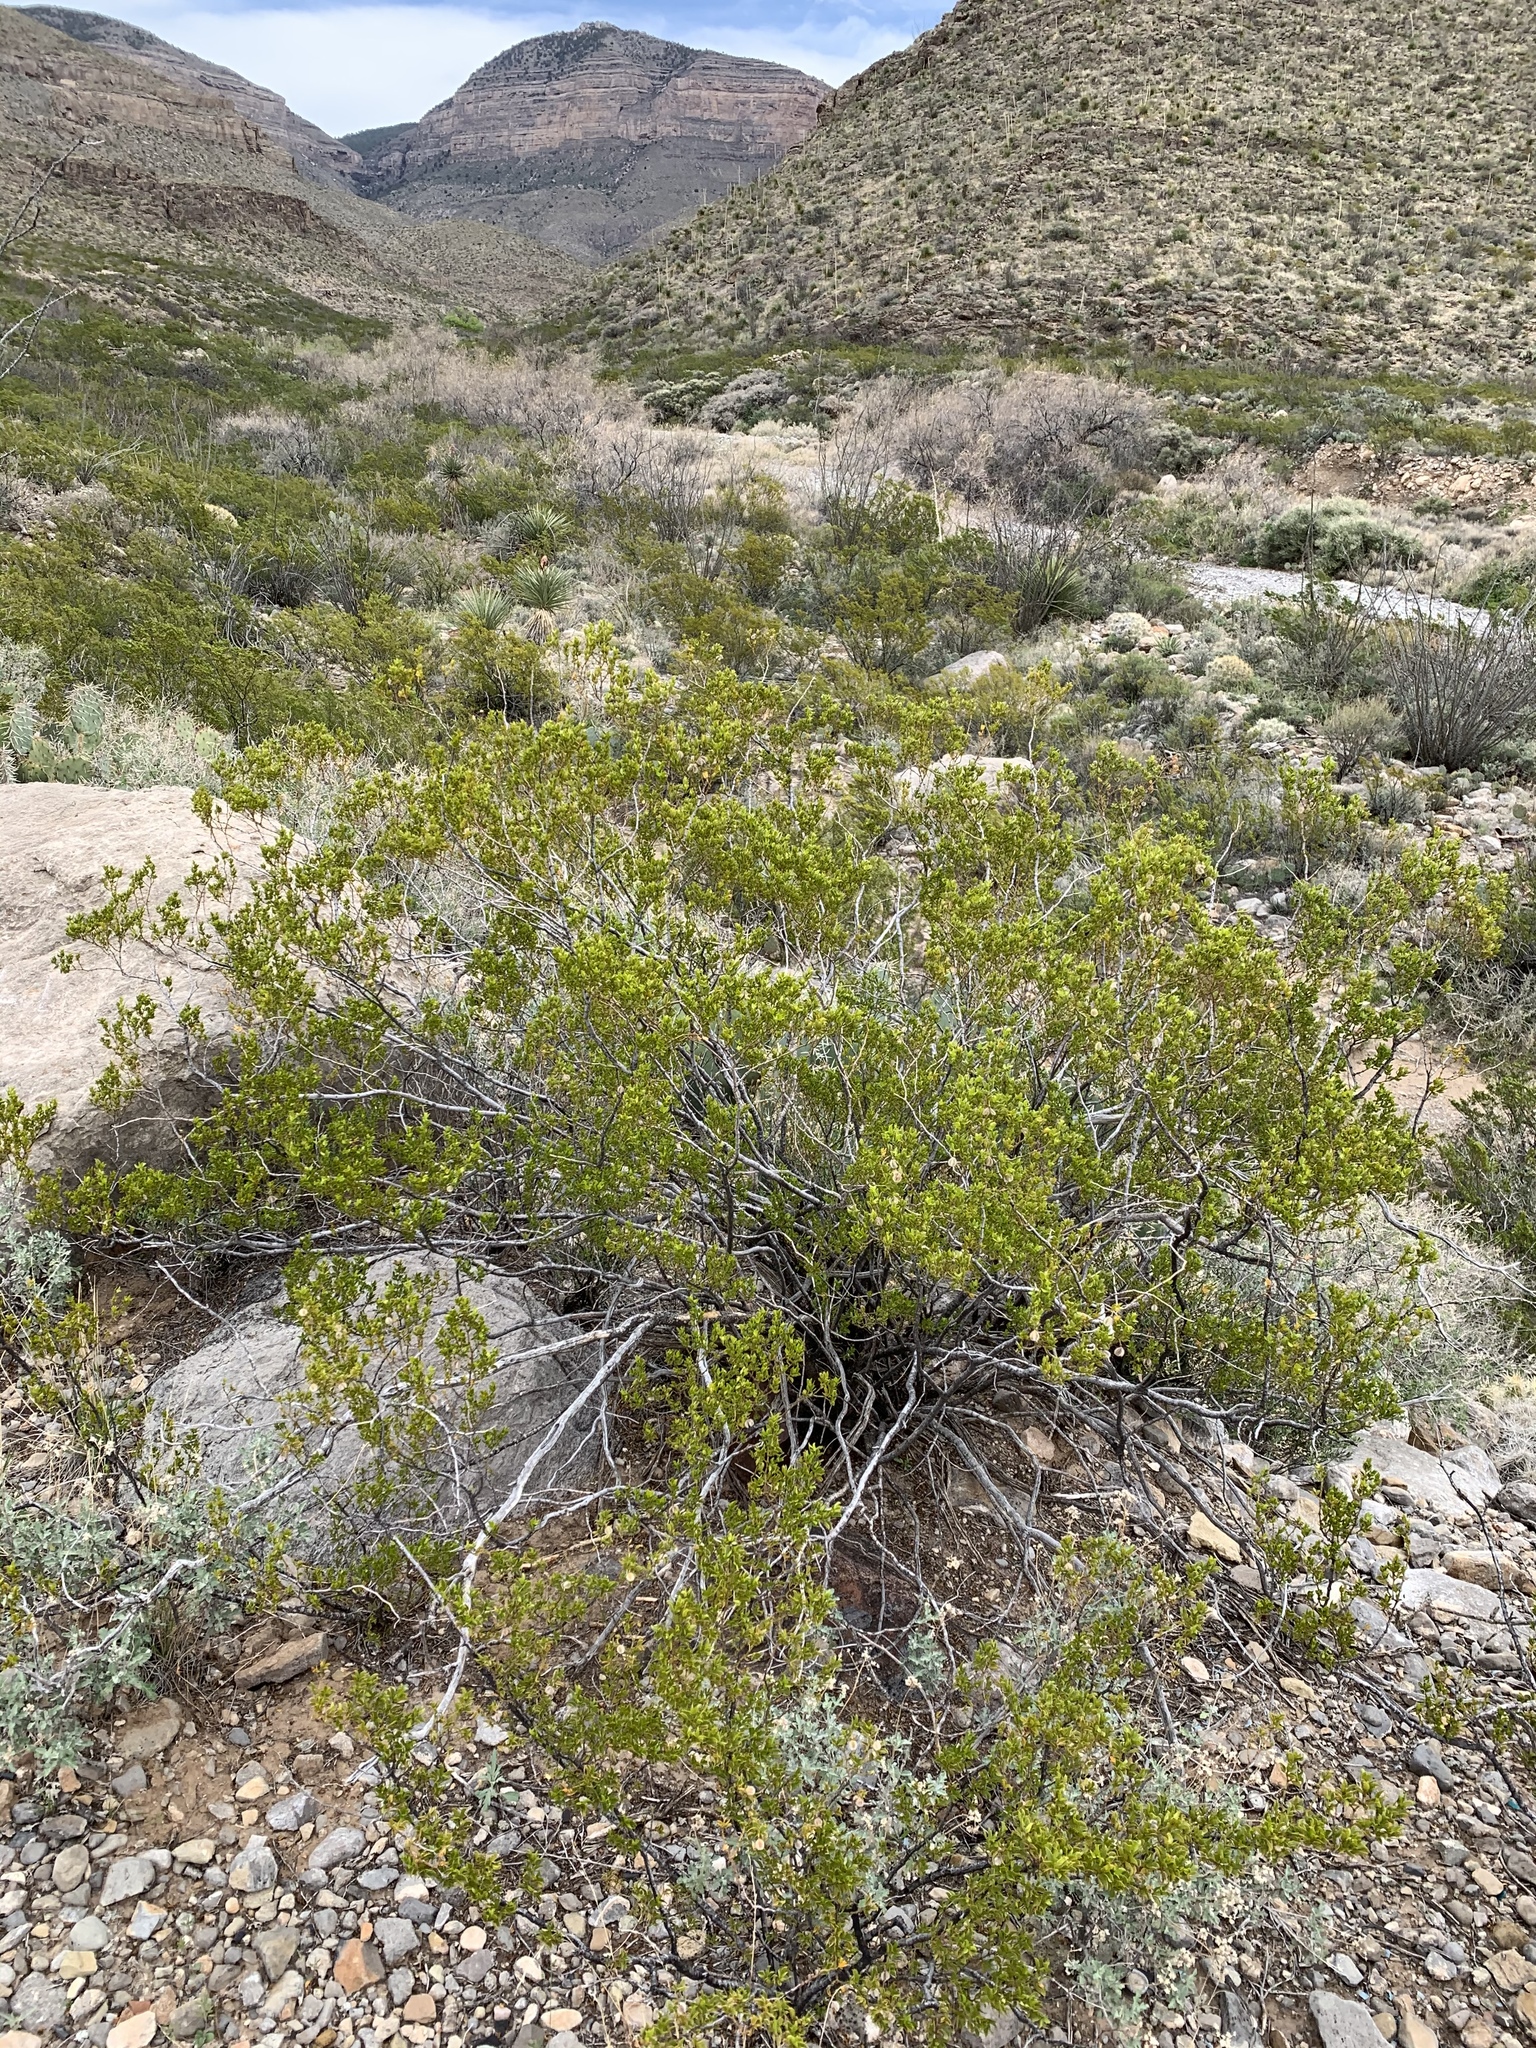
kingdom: Plantae
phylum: Tracheophyta
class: Magnoliopsida
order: Zygophyllales
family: Zygophyllaceae
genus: Larrea
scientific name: Larrea tridentata
